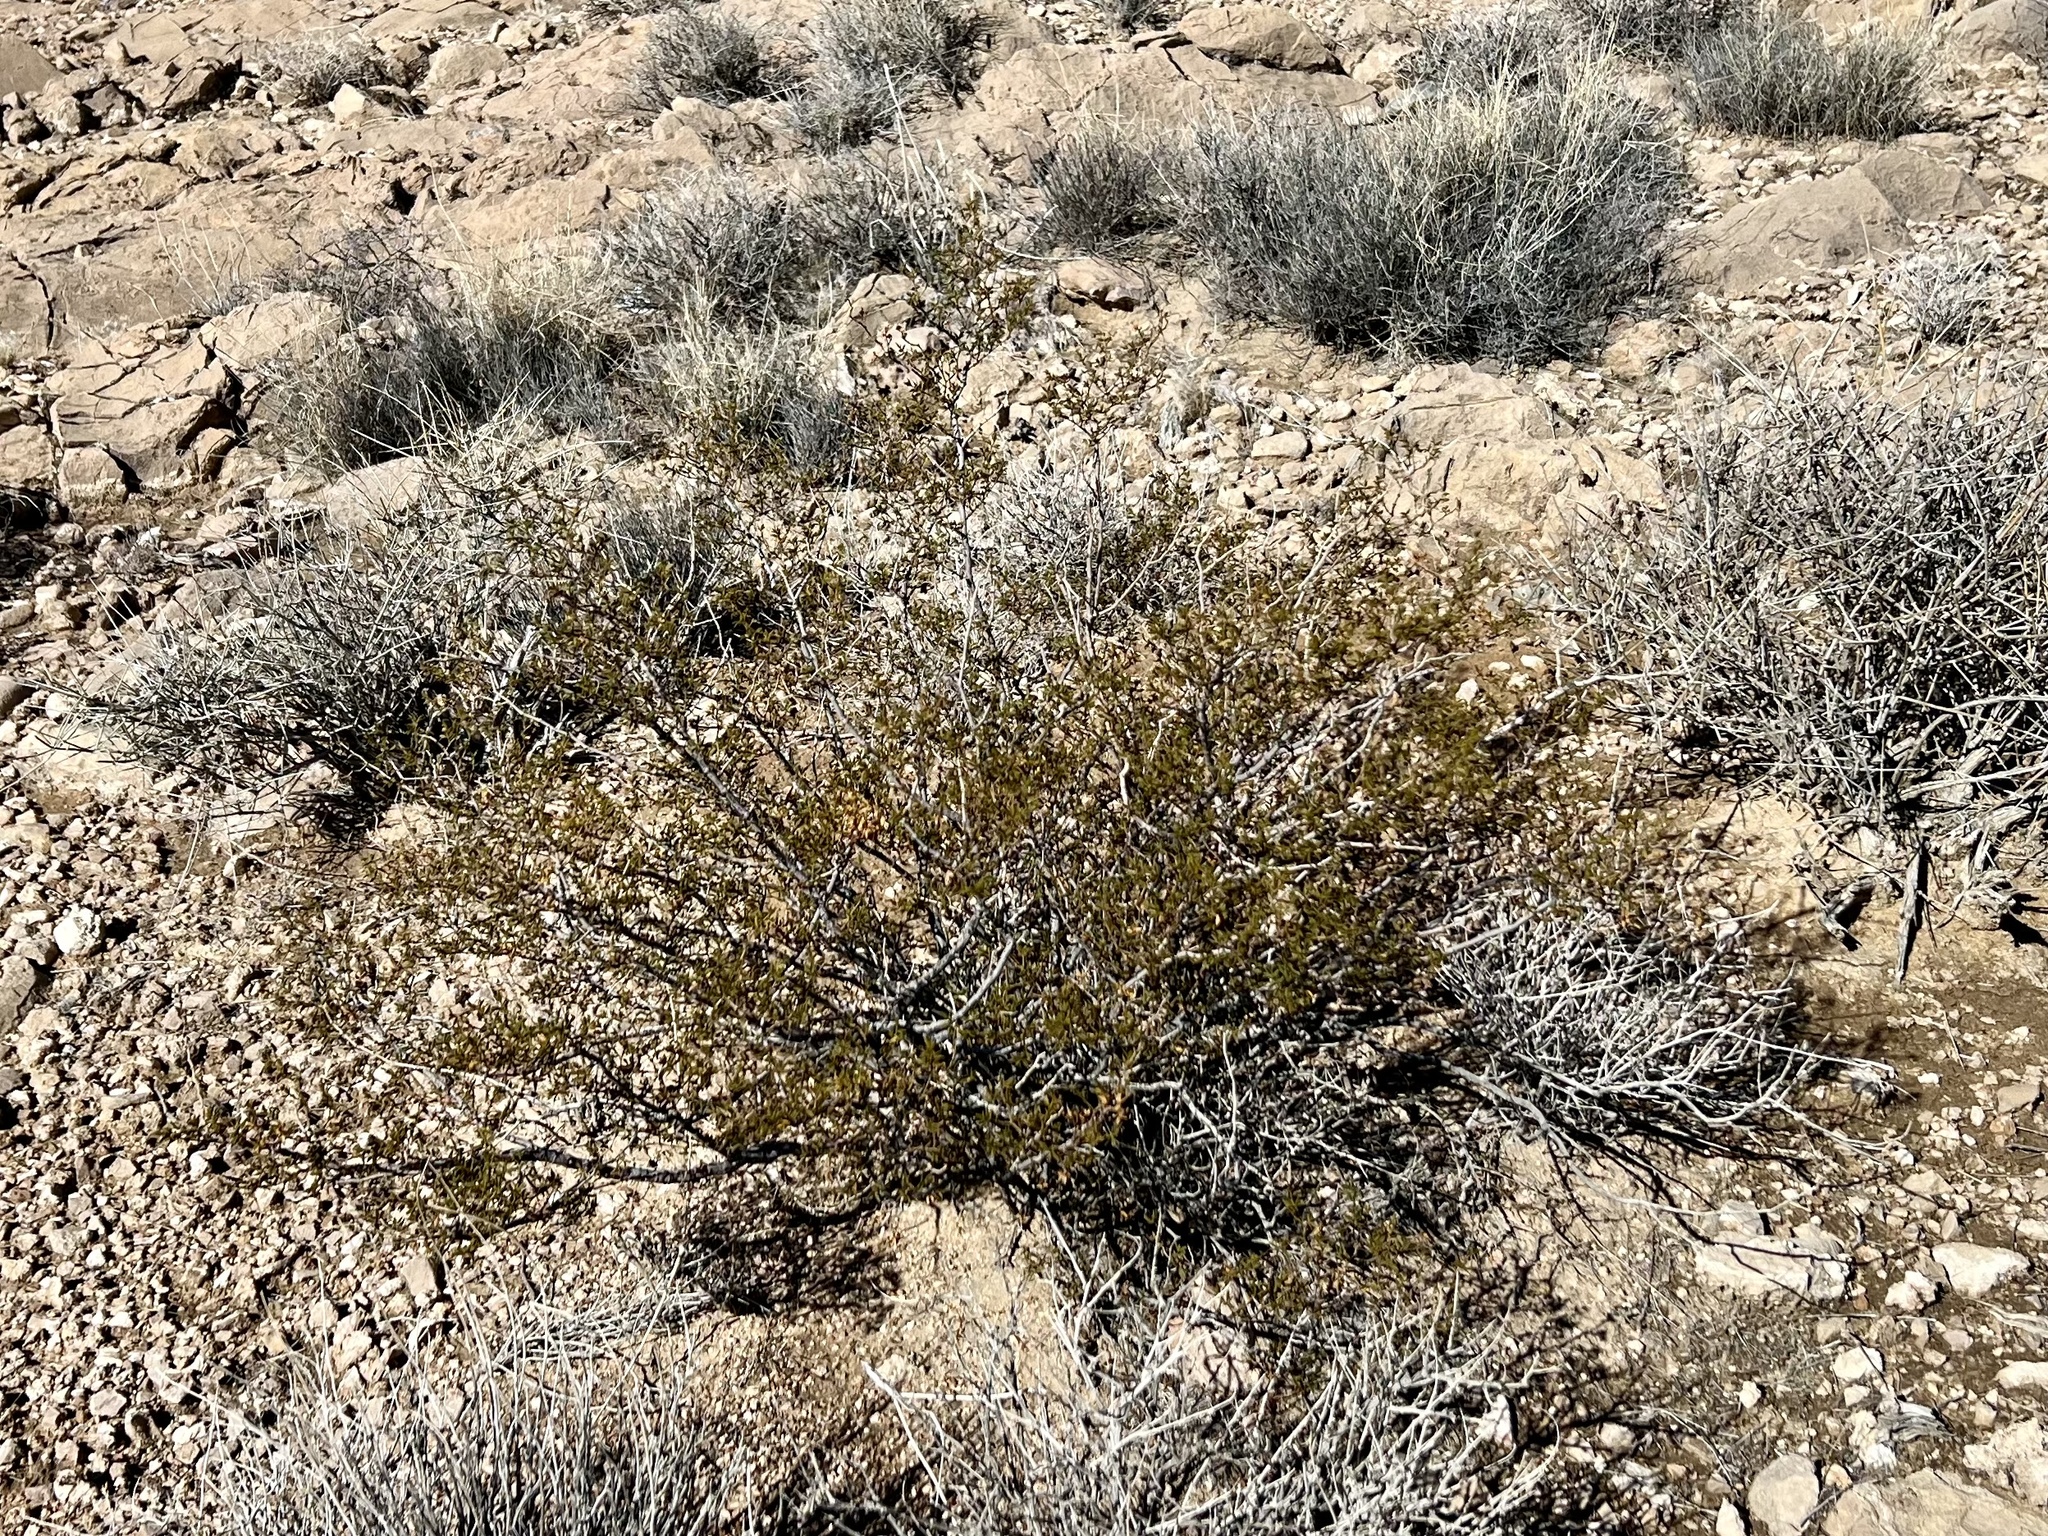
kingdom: Plantae
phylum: Tracheophyta
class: Magnoliopsida
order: Zygophyllales
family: Zygophyllaceae
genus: Larrea
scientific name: Larrea tridentata
